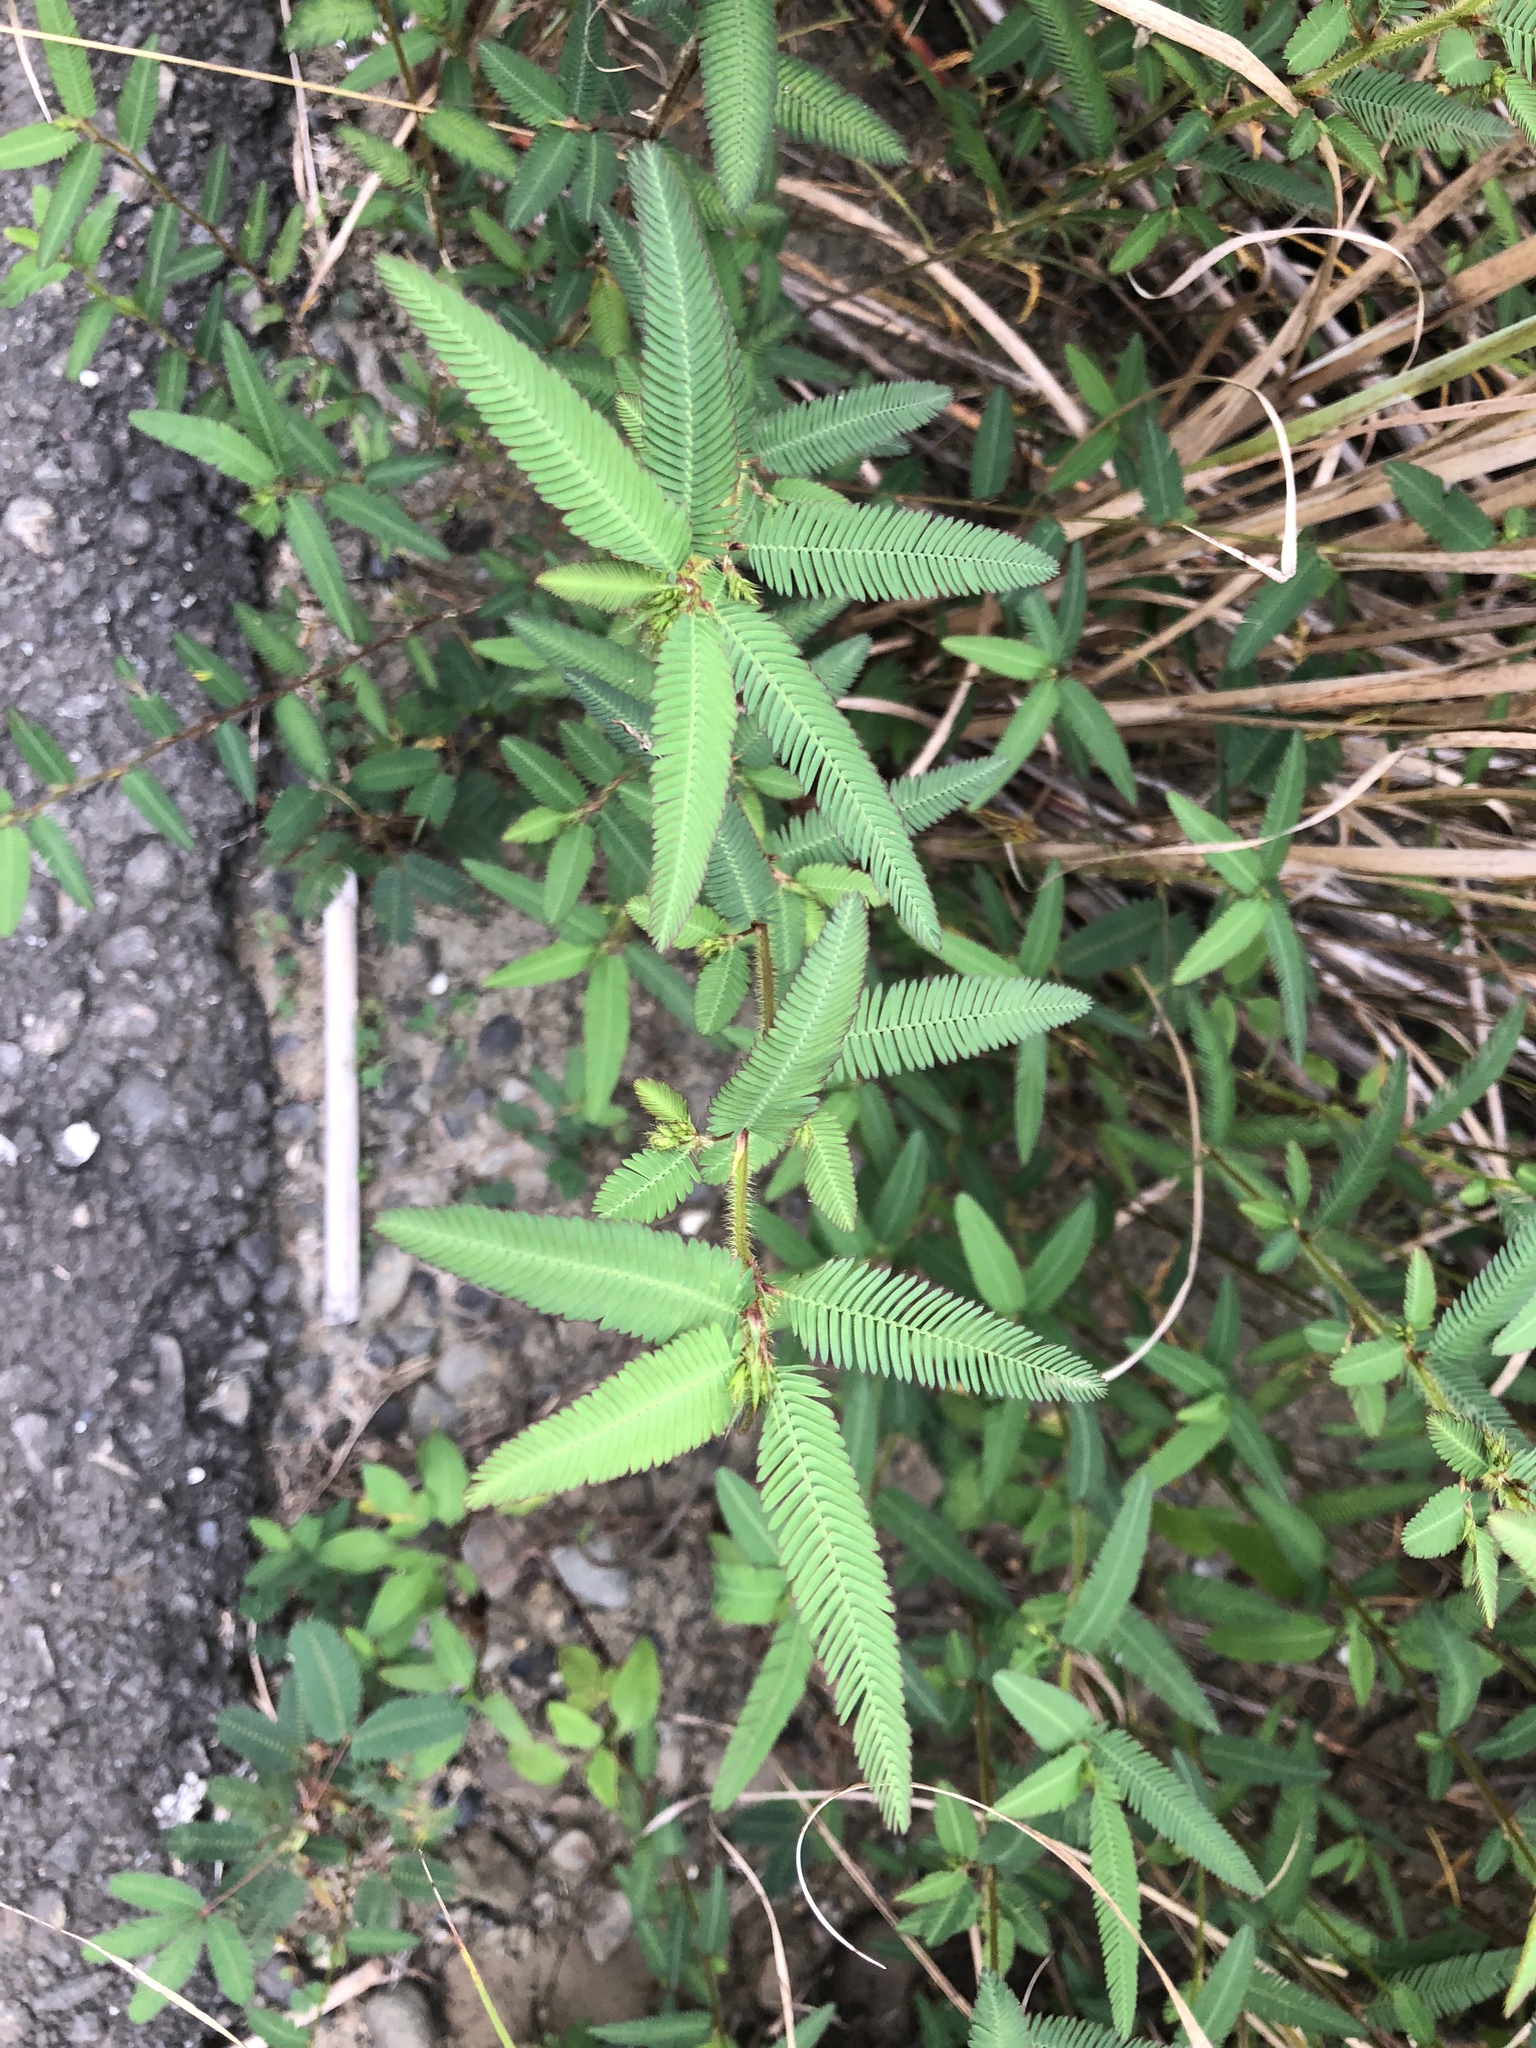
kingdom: Plantae
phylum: Tracheophyta
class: Magnoliopsida
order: Fabales
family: Fabaceae
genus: Mimosa
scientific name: Mimosa diplotricha
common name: Giant sensitive-plant
